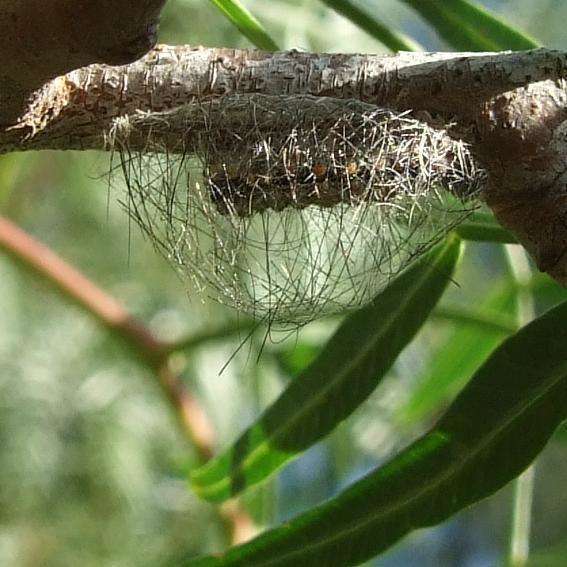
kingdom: Plantae
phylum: Tracheophyta
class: Magnoliopsida
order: Sapindales
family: Anacardiaceae
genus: Schinus
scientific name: Schinus molle
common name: Peruvian peppertree
